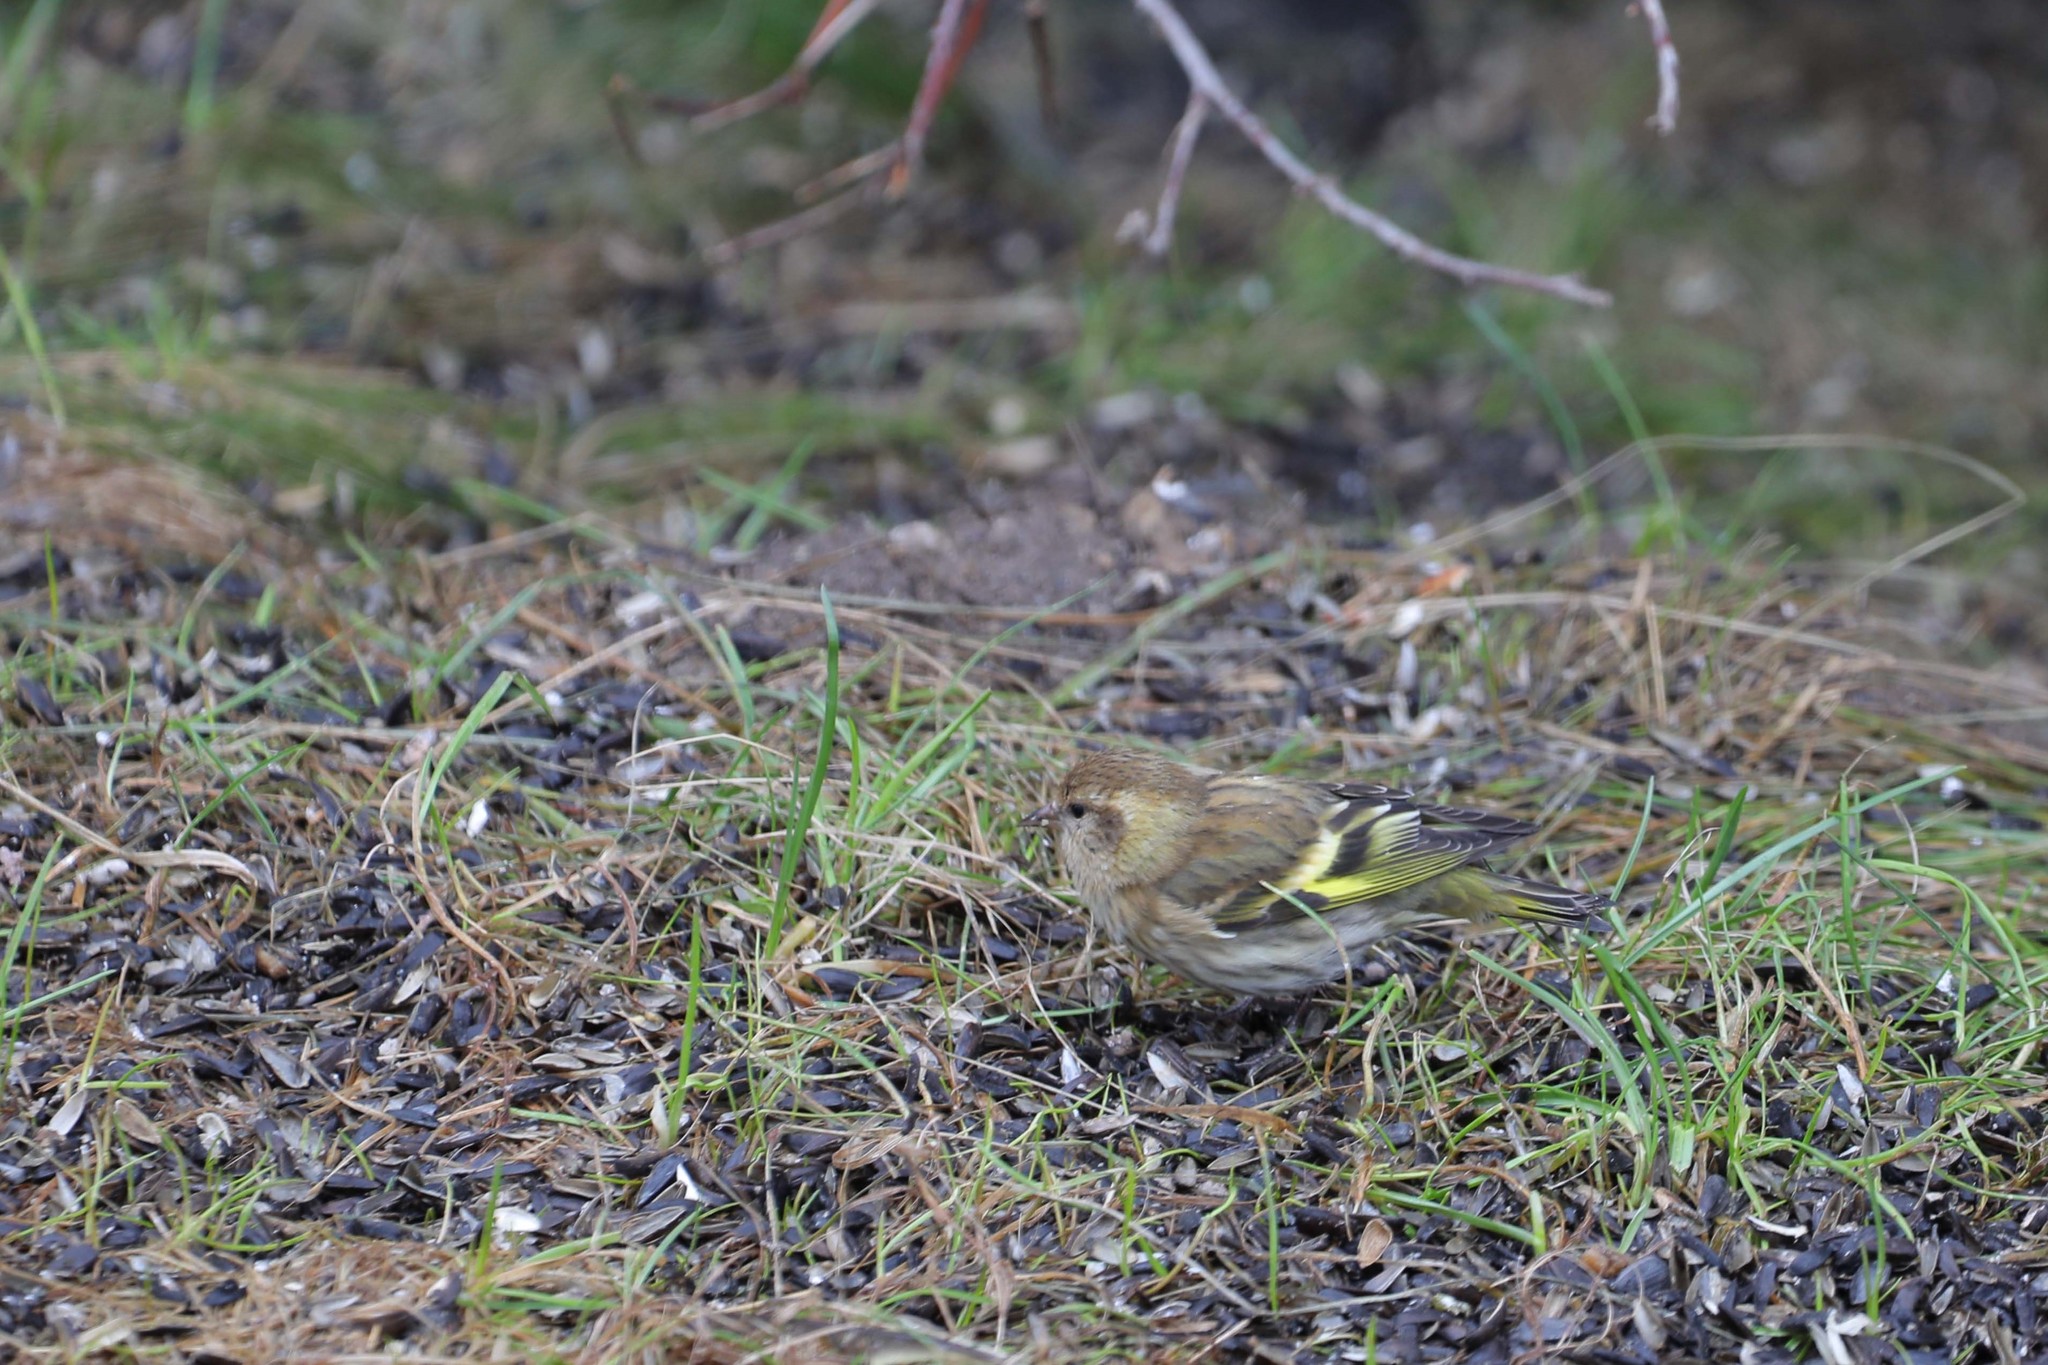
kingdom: Animalia
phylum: Chordata
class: Aves
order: Passeriformes
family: Fringillidae
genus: Spinus
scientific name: Spinus pinus
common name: Pine siskin
